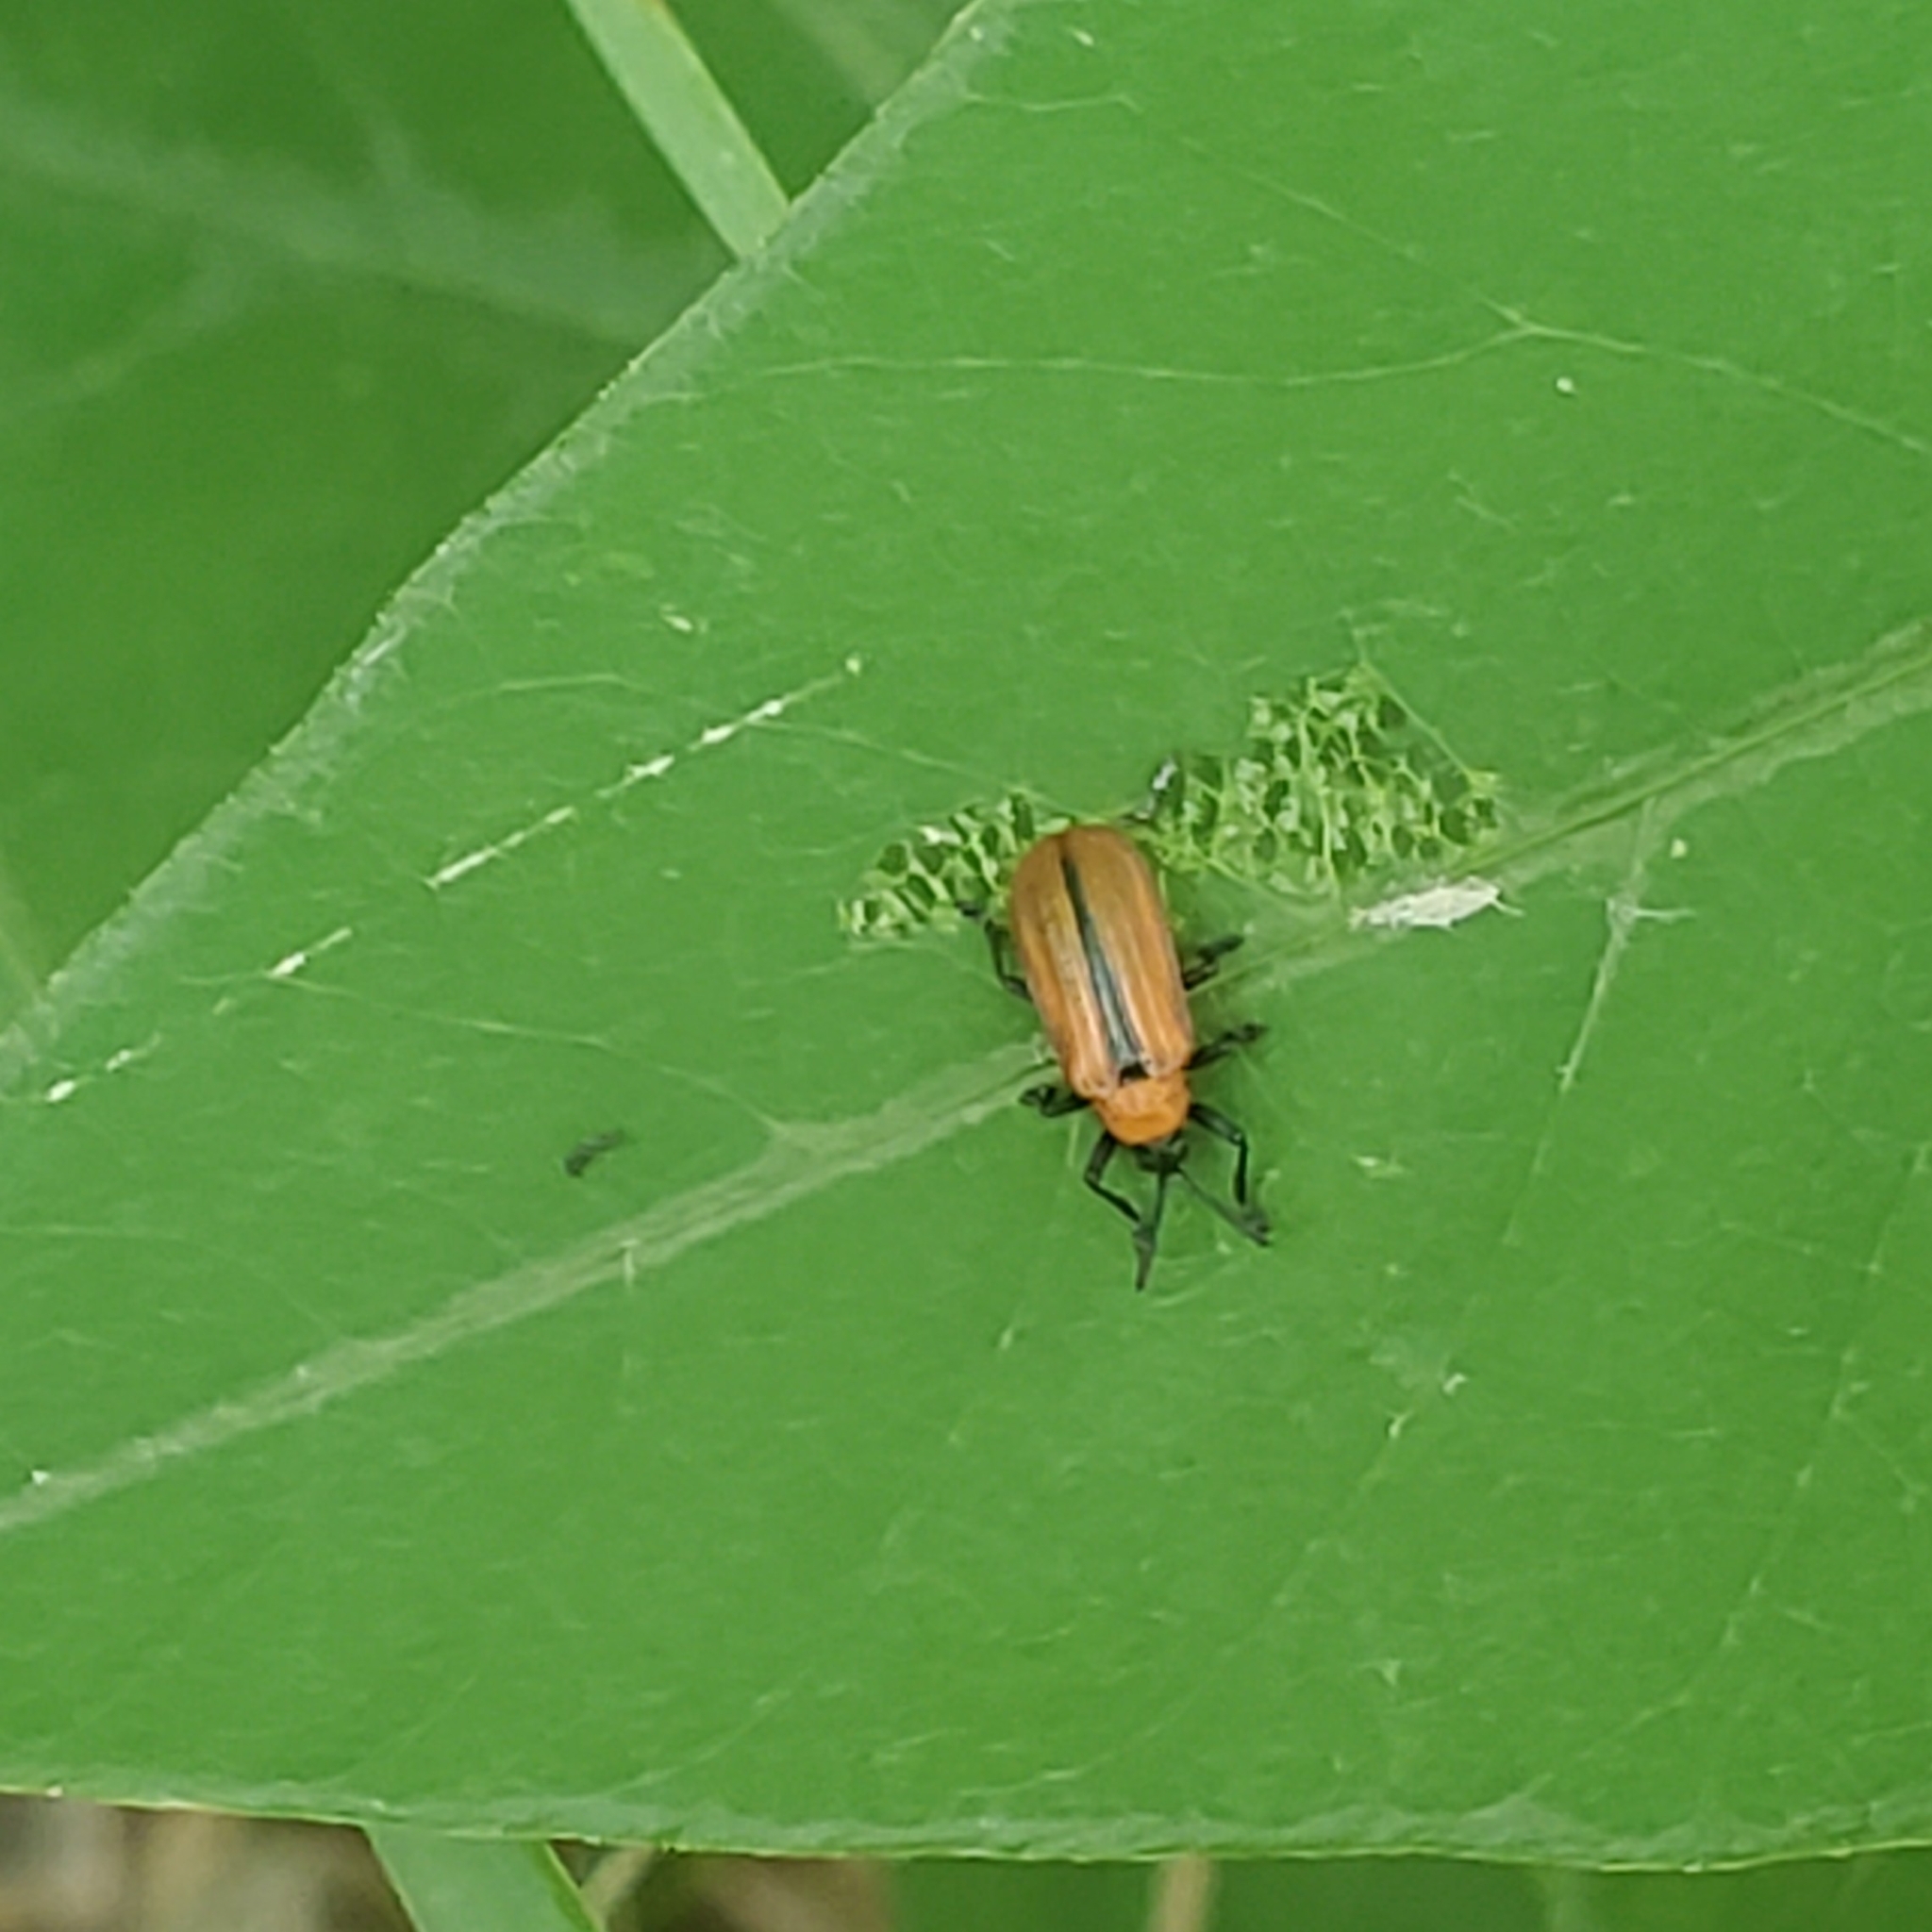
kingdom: Animalia
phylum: Arthropoda
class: Insecta
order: Coleoptera
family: Chrysomelidae
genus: Odontota
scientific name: Odontota horni
